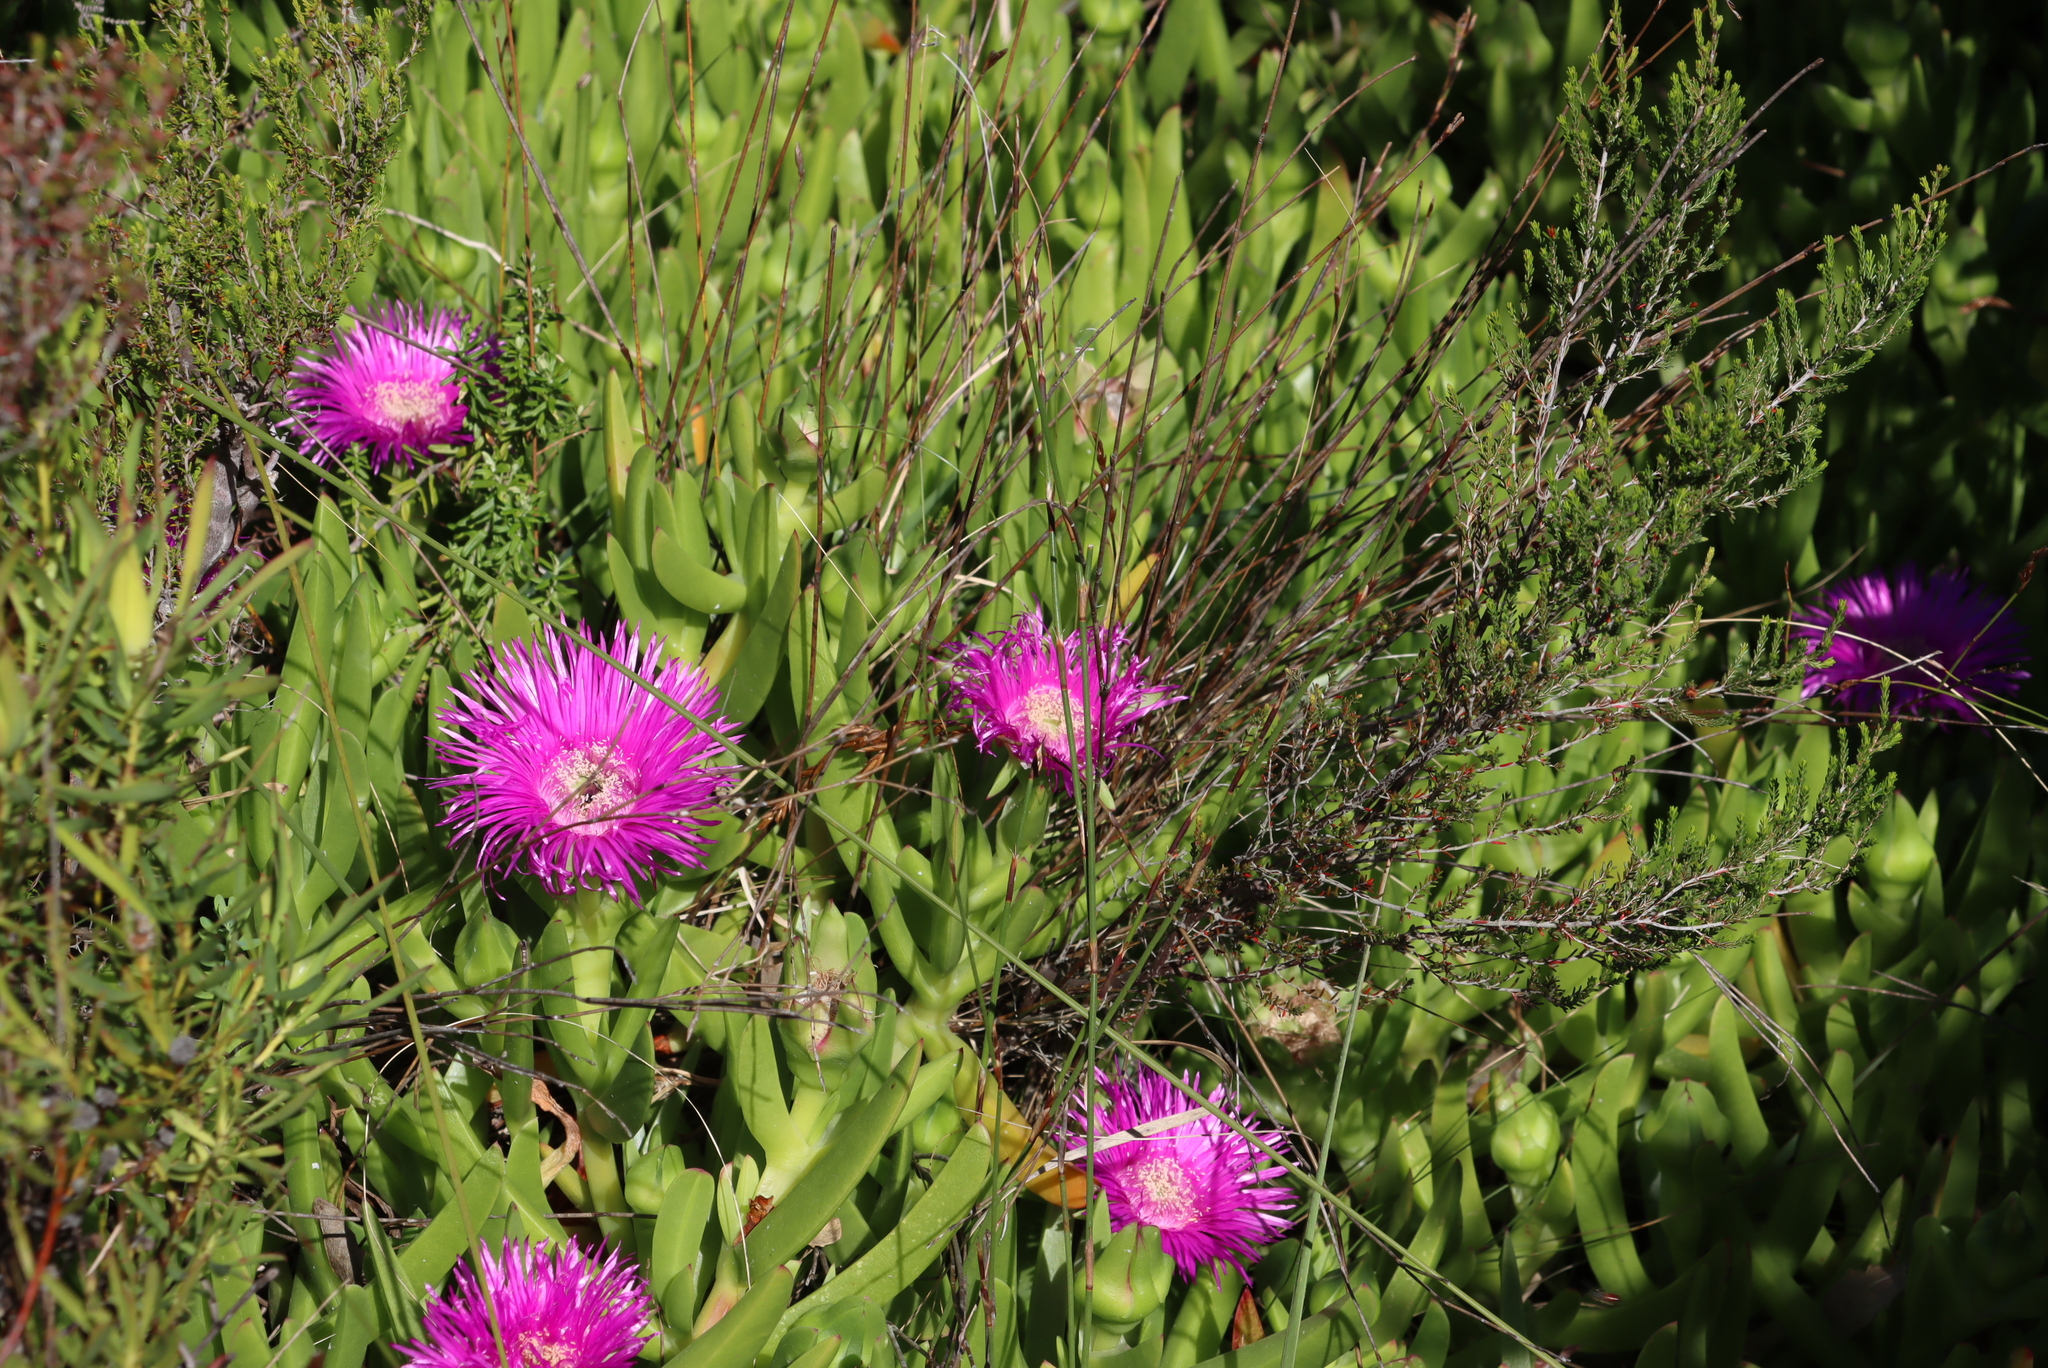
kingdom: Plantae
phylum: Tracheophyta
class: Magnoliopsida
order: Caryophyllales
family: Aizoaceae
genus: Carpobrotus
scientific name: Carpobrotus deliciosus
